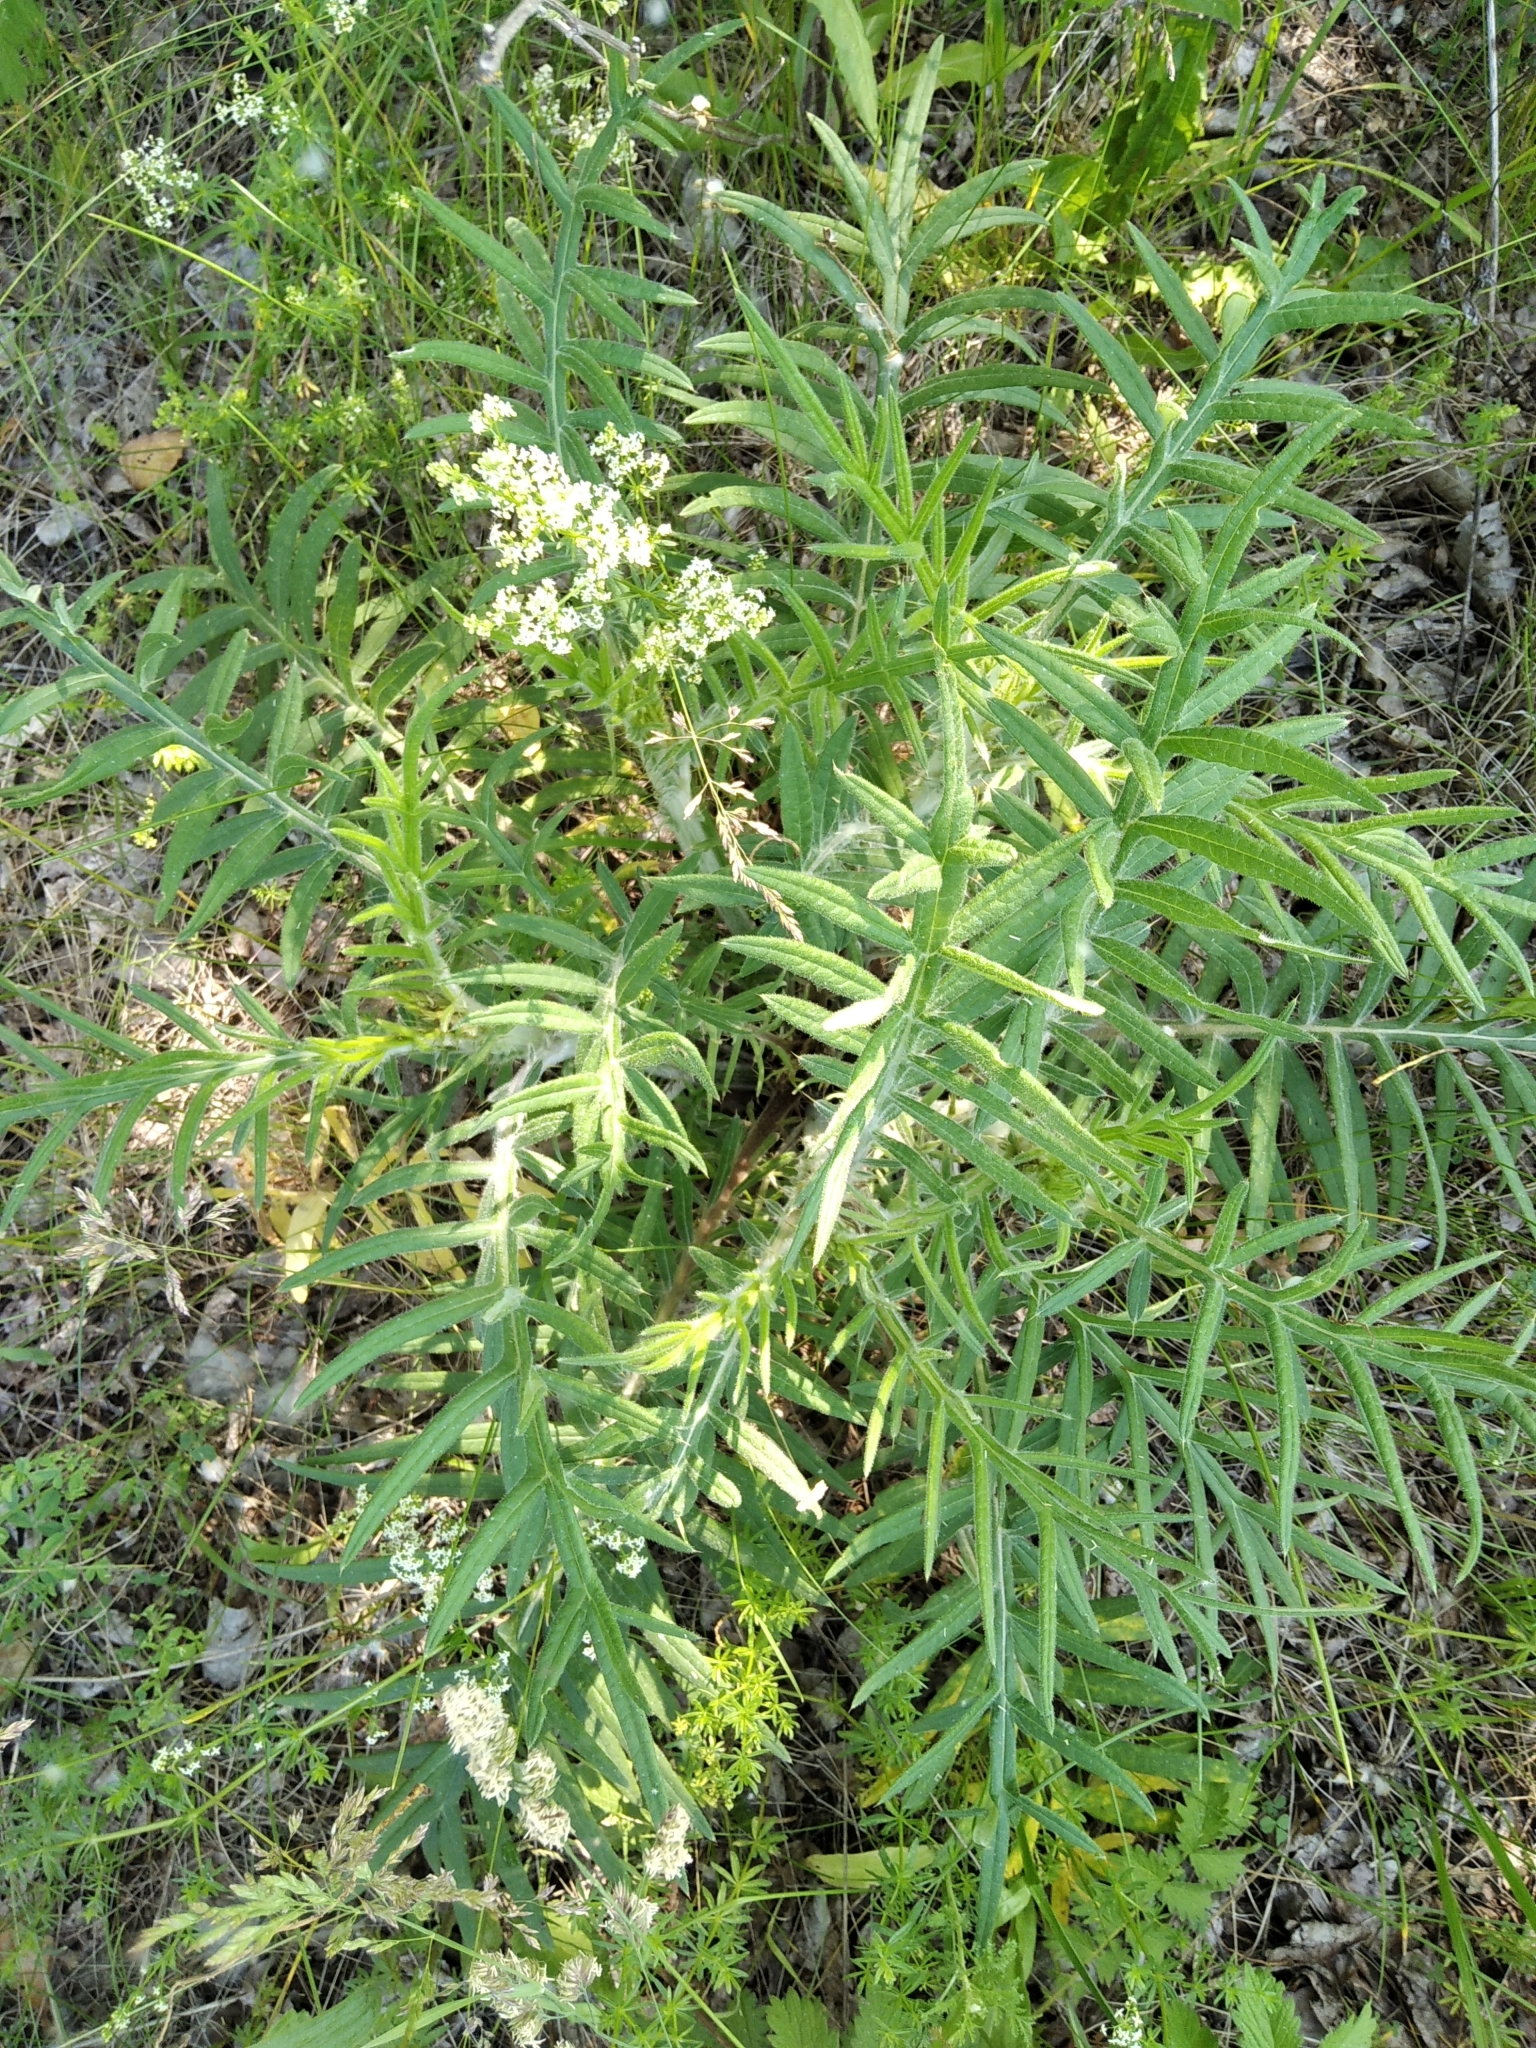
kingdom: Plantae
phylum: Tracheophyta
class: Magnoliopsida
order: Asterales
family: Asteraceae
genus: Lophiolepis
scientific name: Lophiolepis decussata
